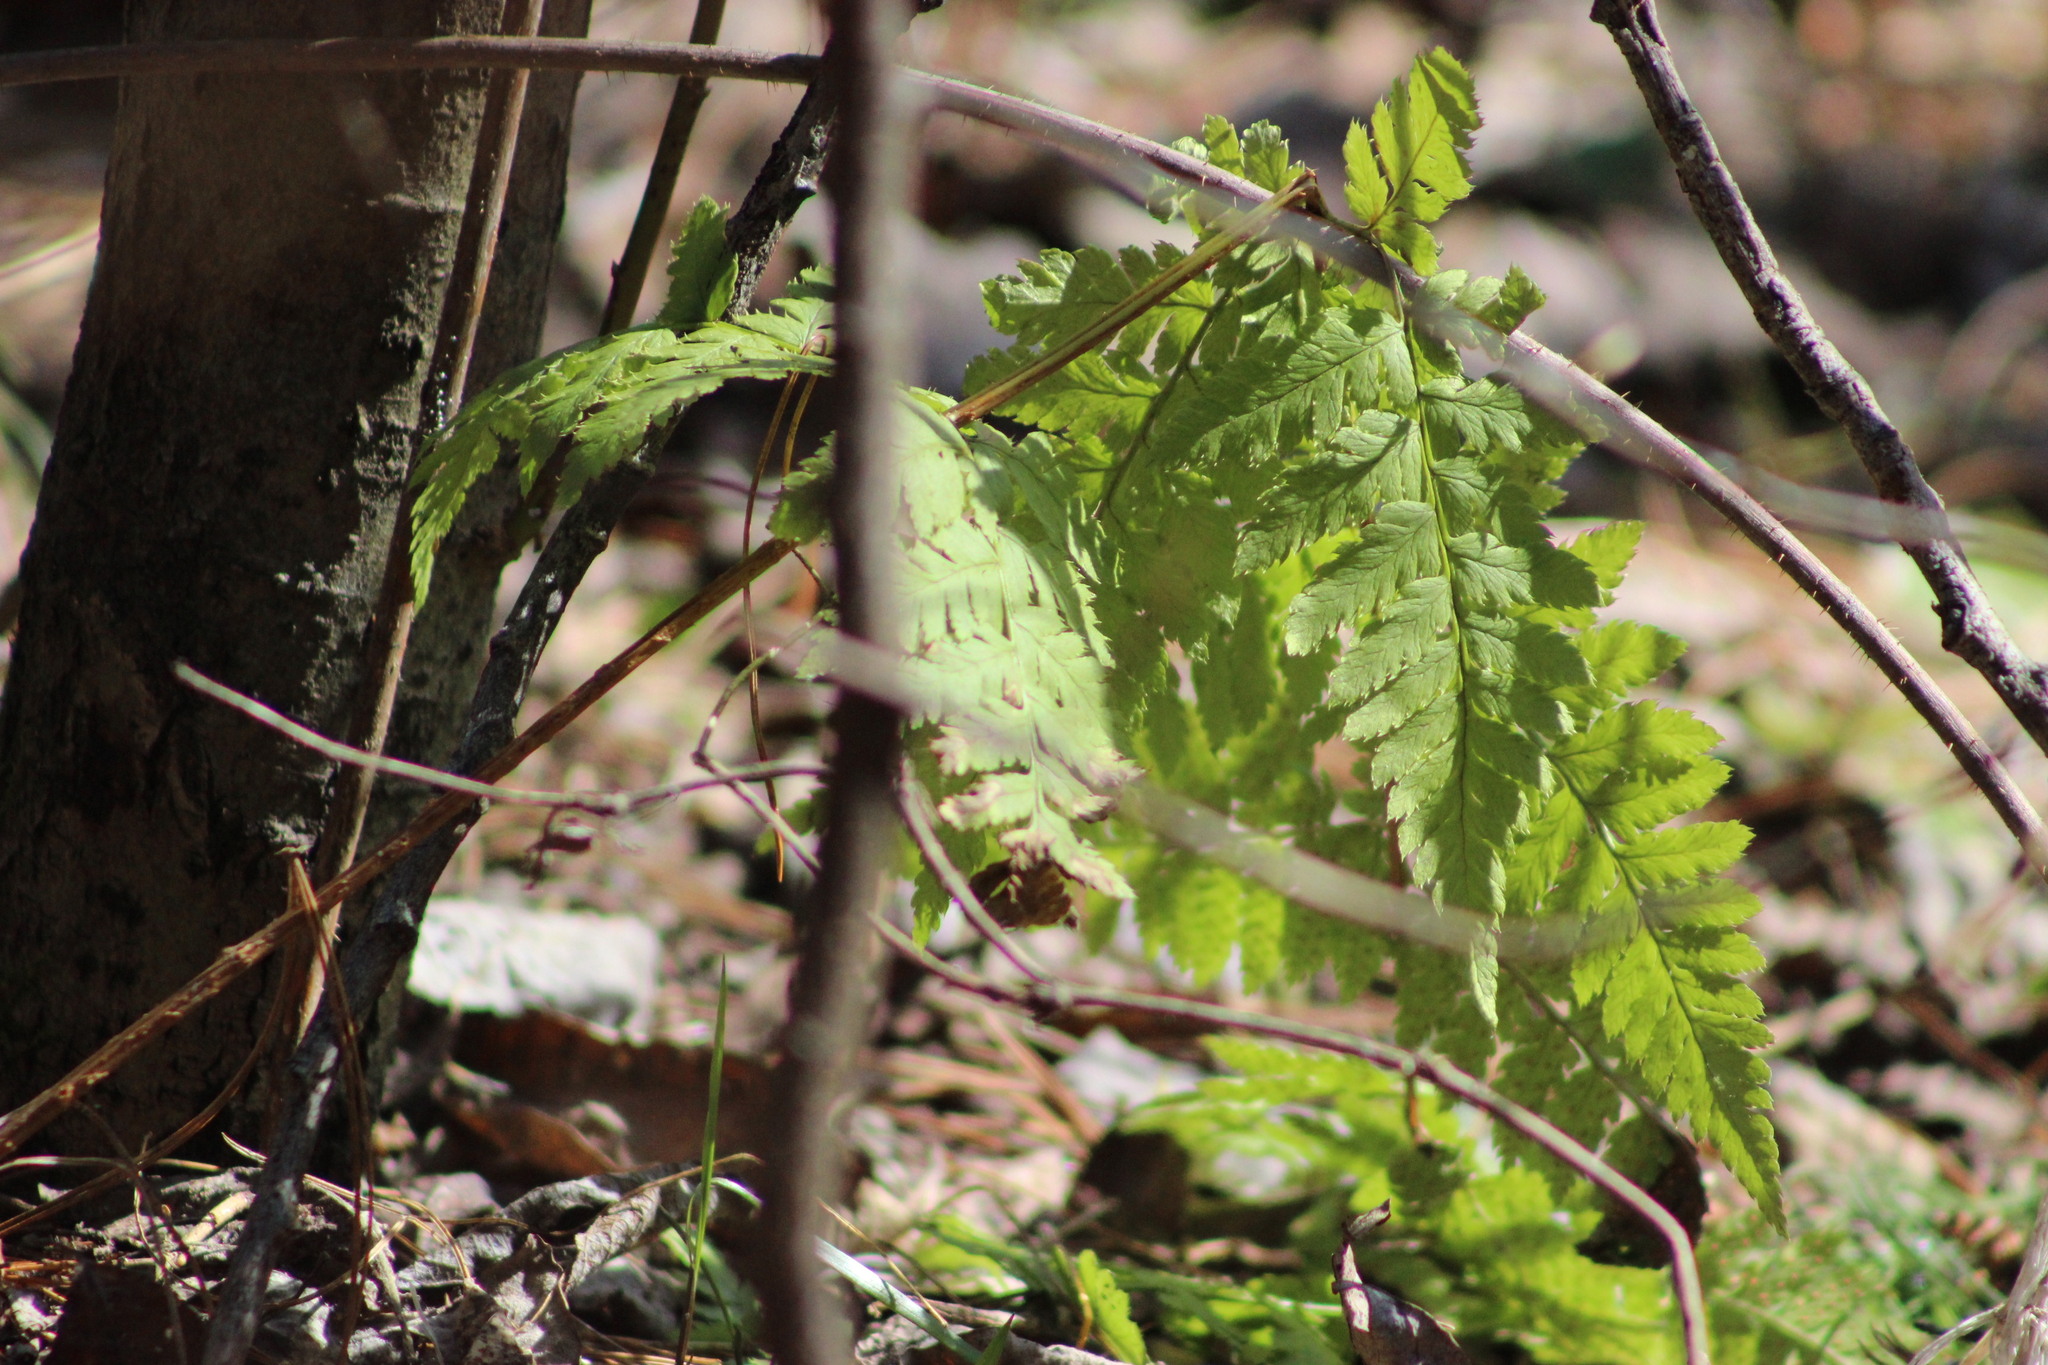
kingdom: Plantae
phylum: Tracheophyta
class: Polypodiopsida
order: Polypodiales
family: Dryopteridaceae
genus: Dryopteris
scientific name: Dryopteris carthusiana
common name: Narrow buckler-fern
